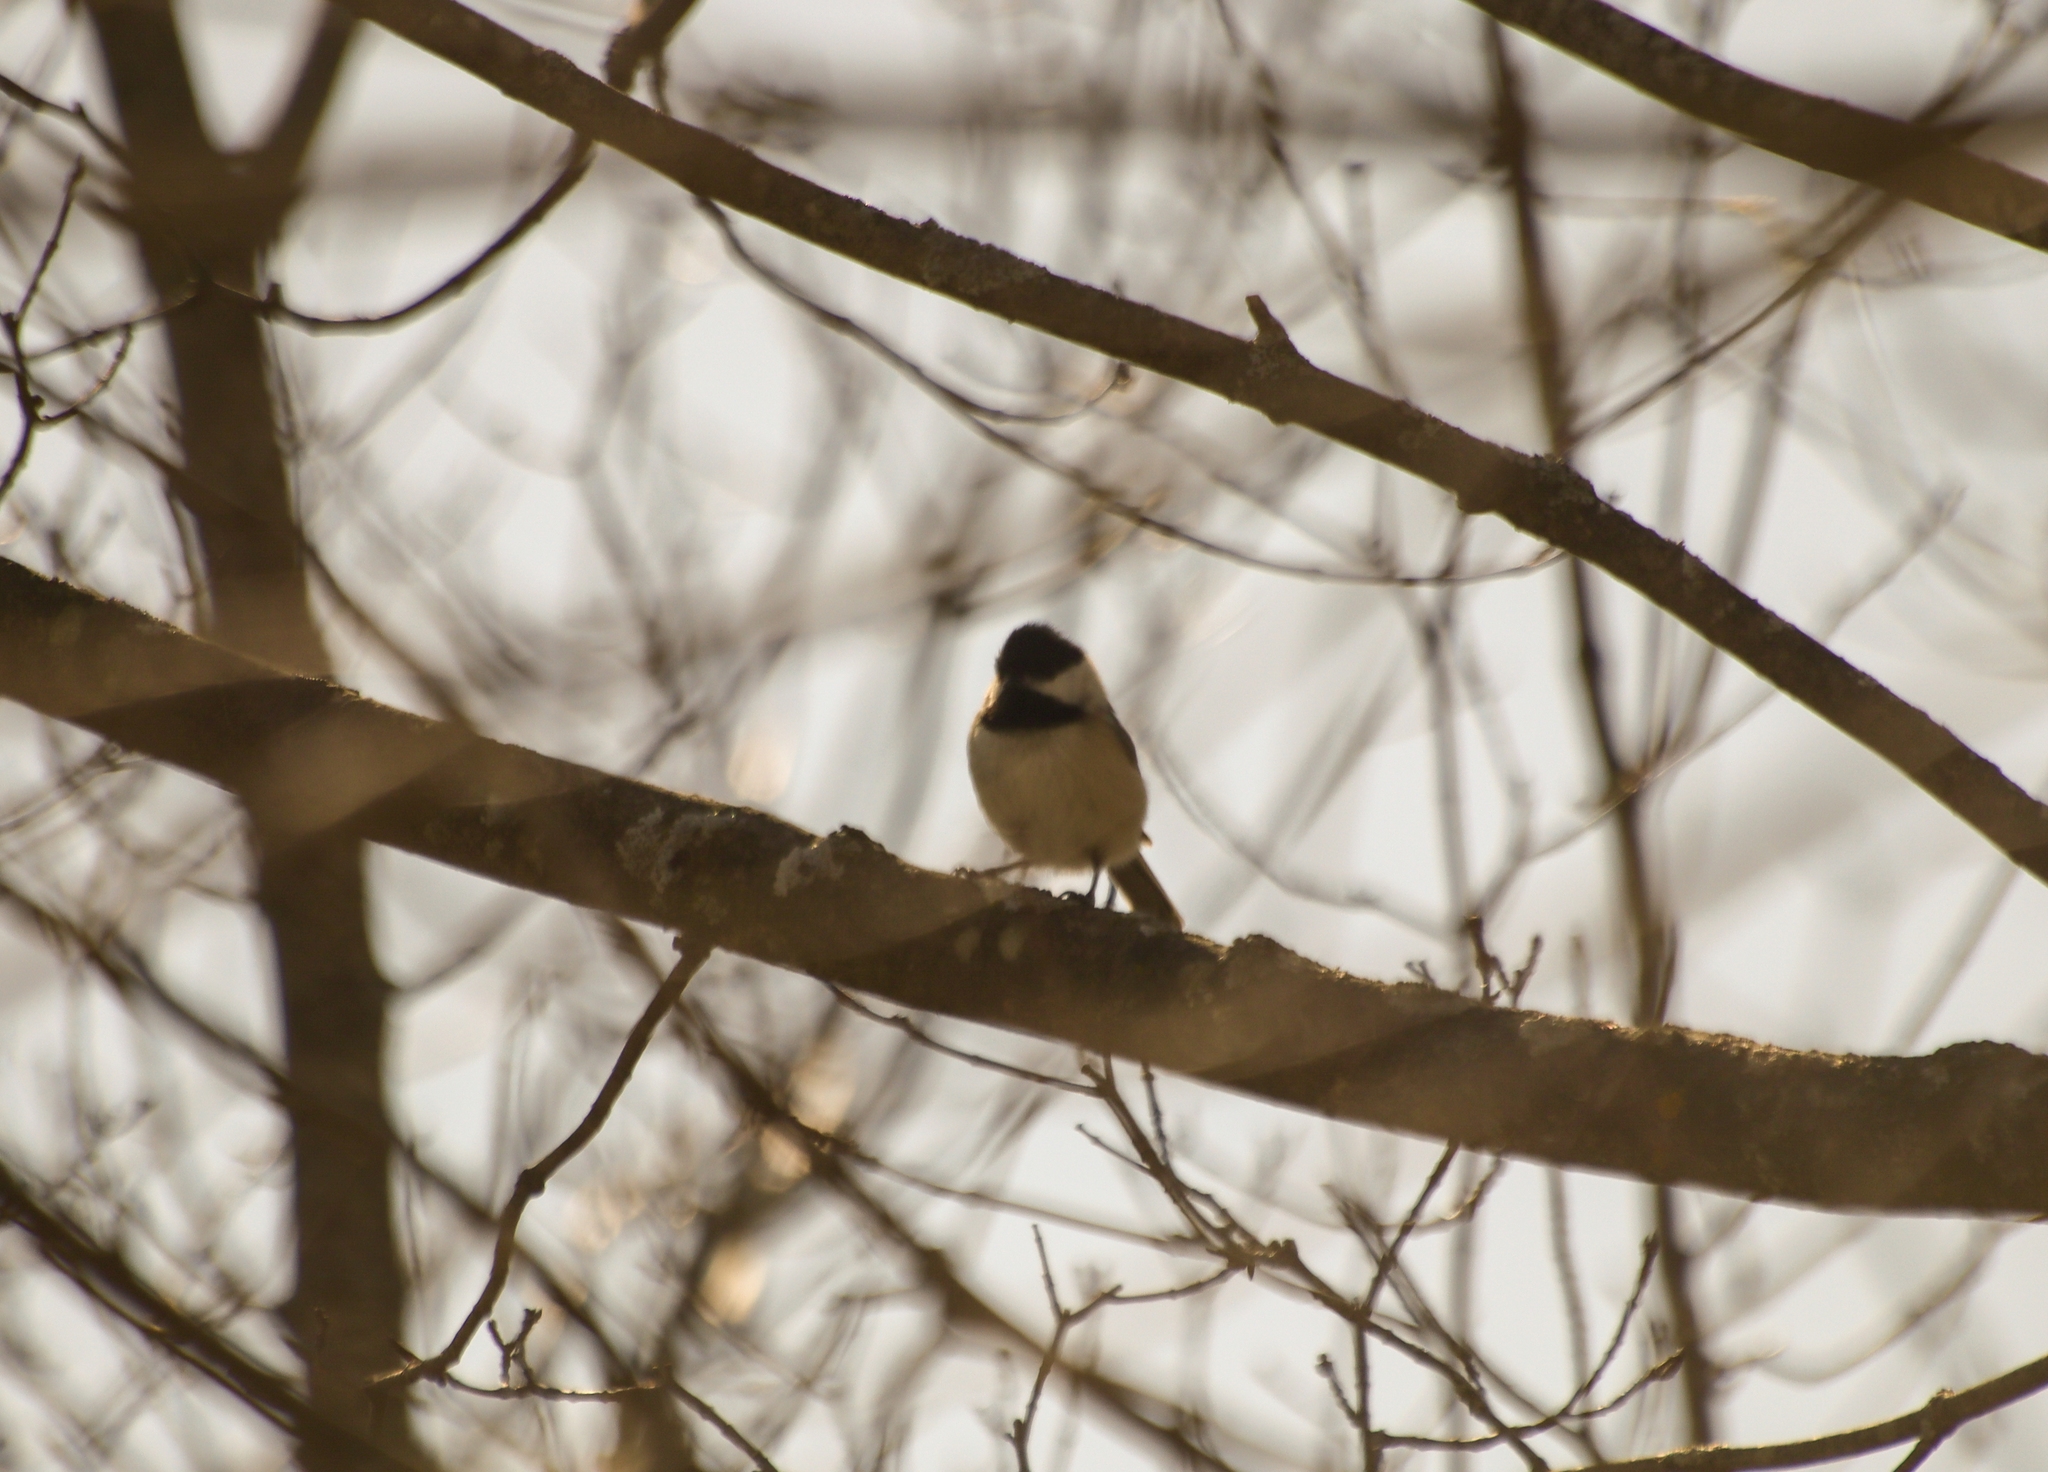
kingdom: Animalia
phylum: Chordata
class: Aves
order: Passeriformes
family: Paridae
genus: Poecile
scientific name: Poecile atricapillus
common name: Black-capped chickadee
